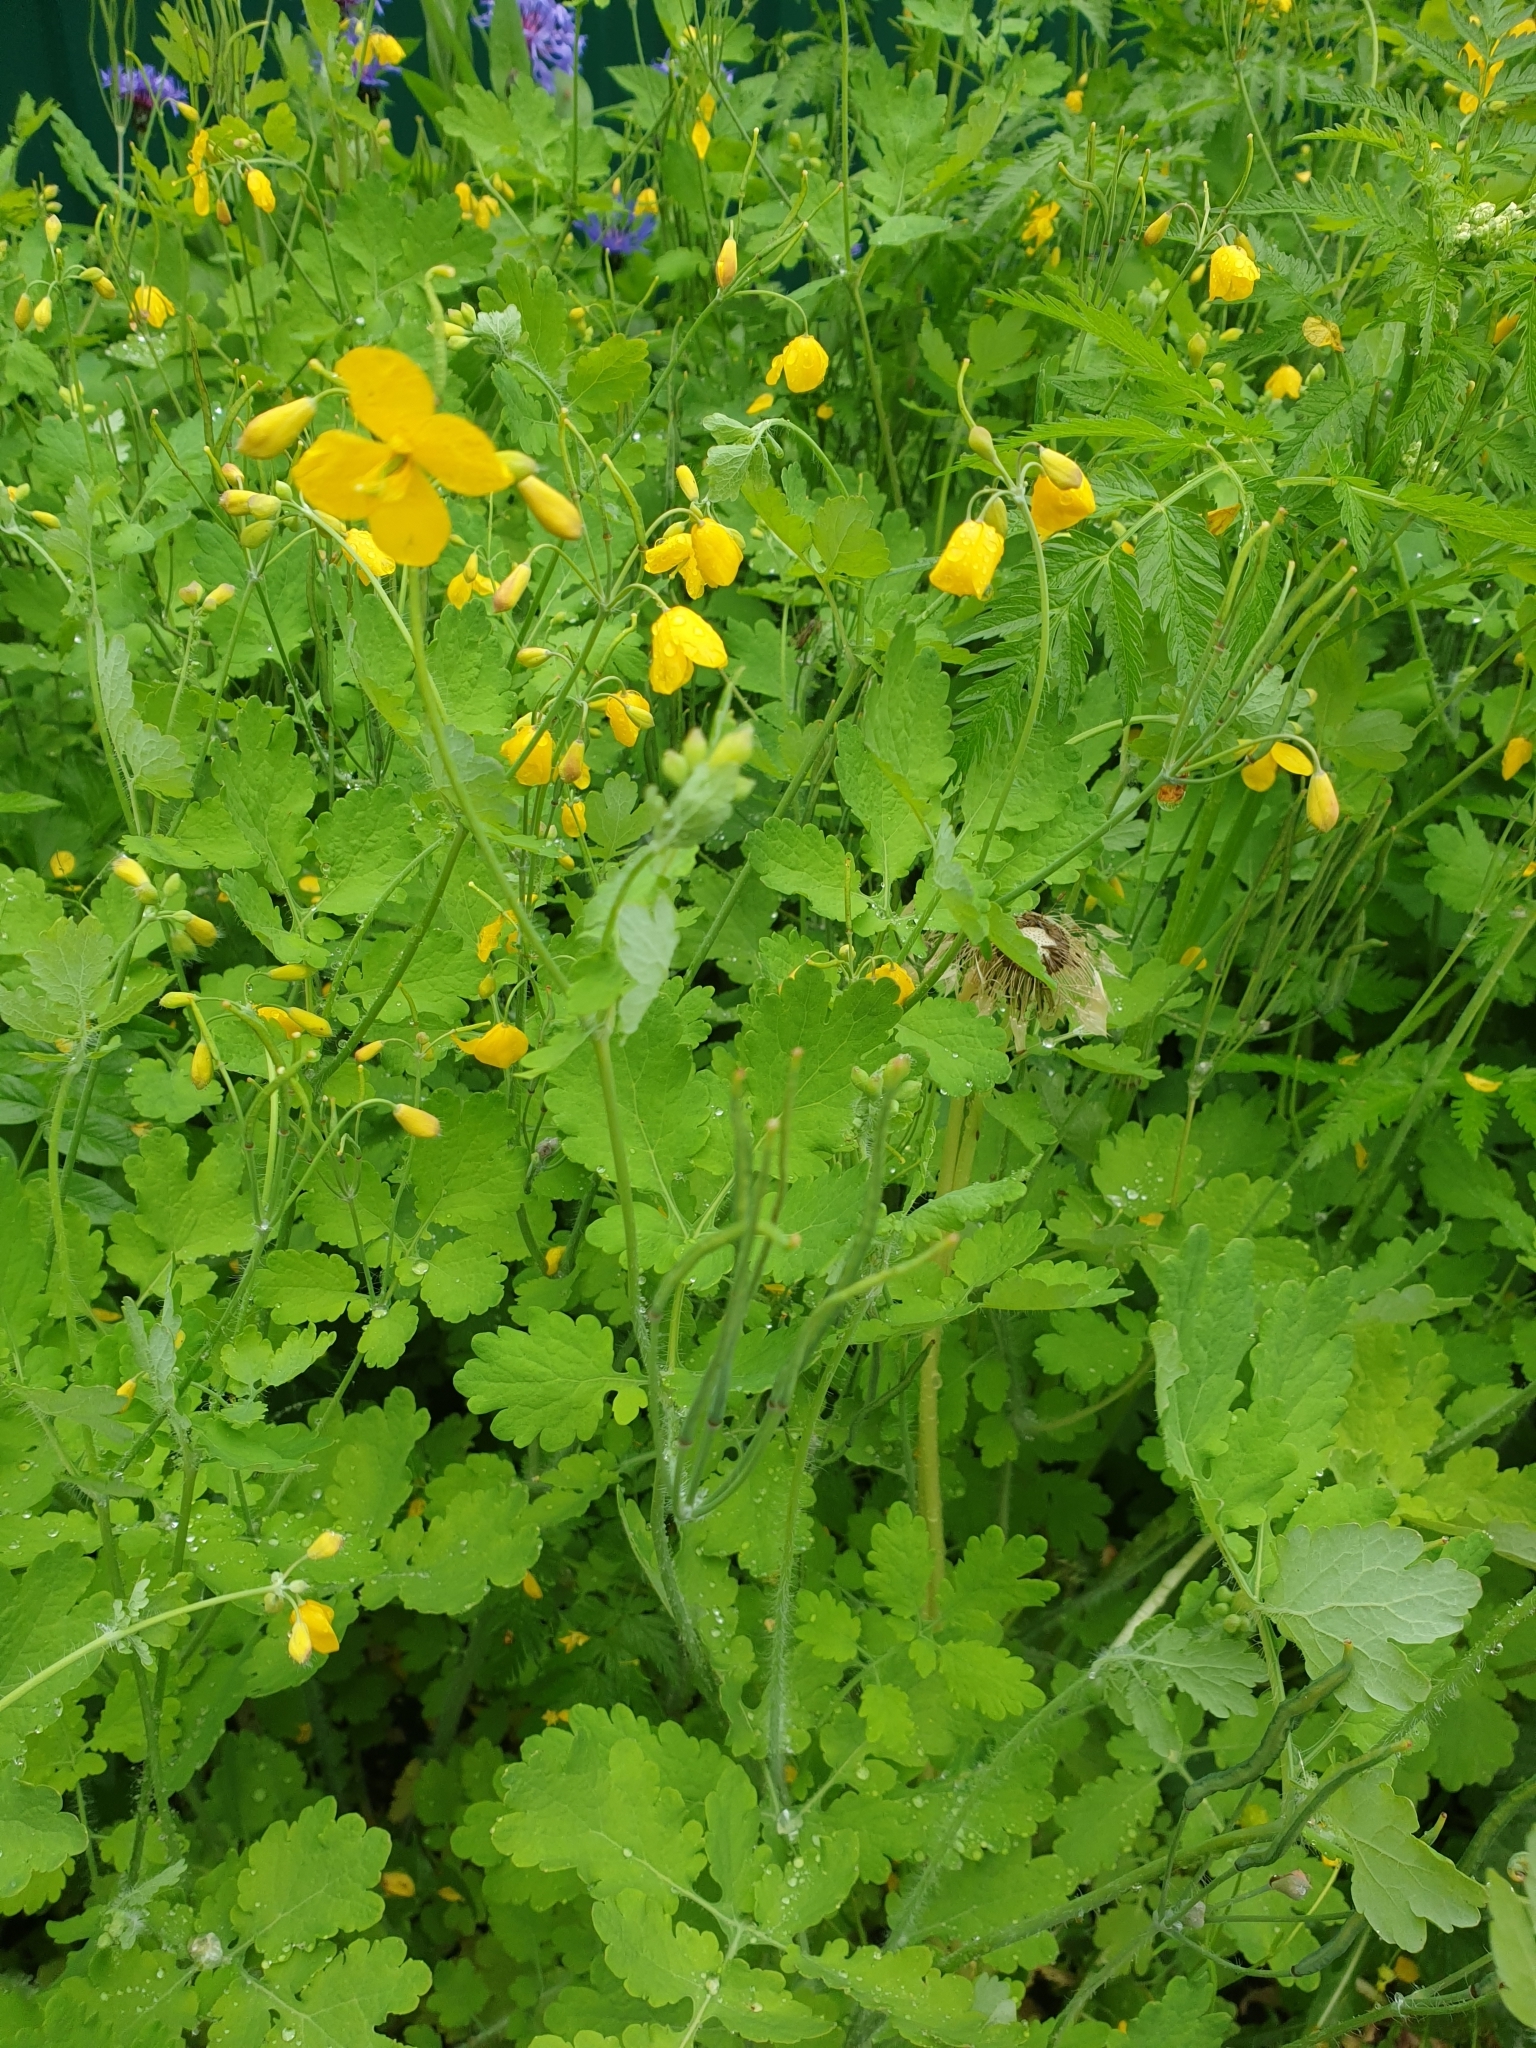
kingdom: Plantae
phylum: Tracheophyta
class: Magnoliopsida
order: Ranunculales
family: Papaveraceae
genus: Chelidonium
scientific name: Chelidonium majus
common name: Greater celandine
